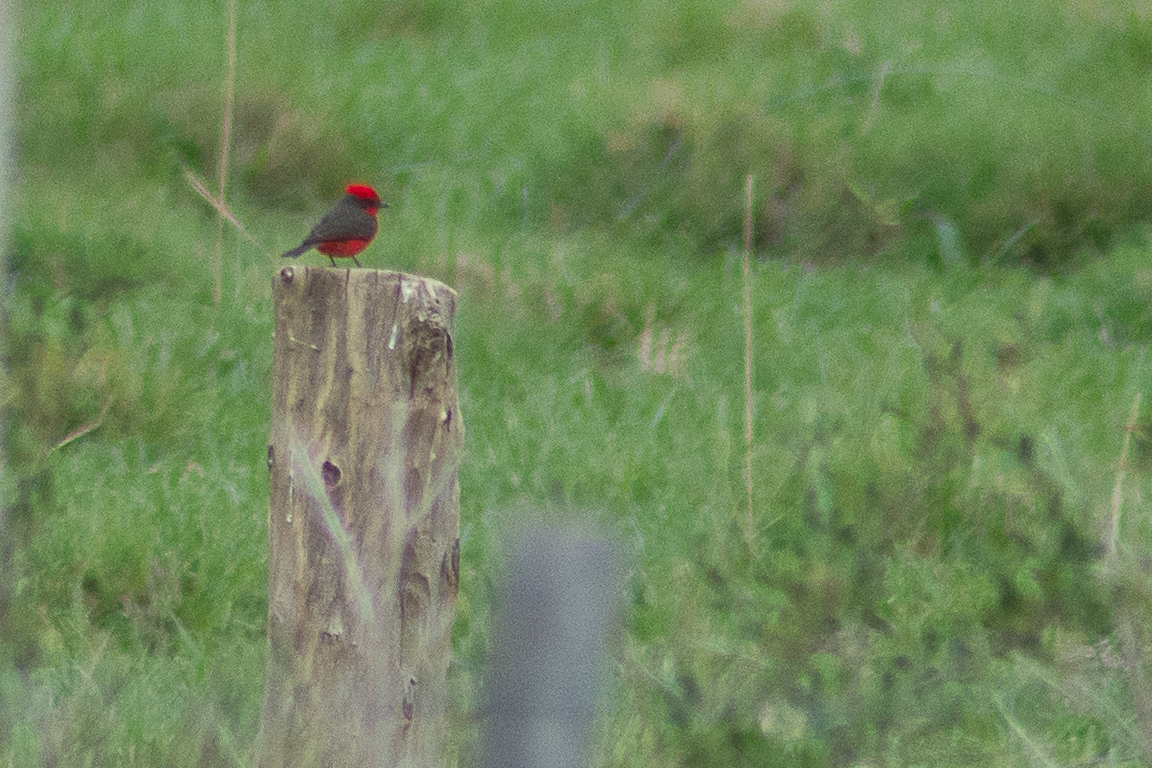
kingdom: Animalia
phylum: Chordata
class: Aves
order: Passeriformes
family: Tyrannidae
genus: Pyrocephalus
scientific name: Pyrocephalus rubinus
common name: Vermilion flycatcher
